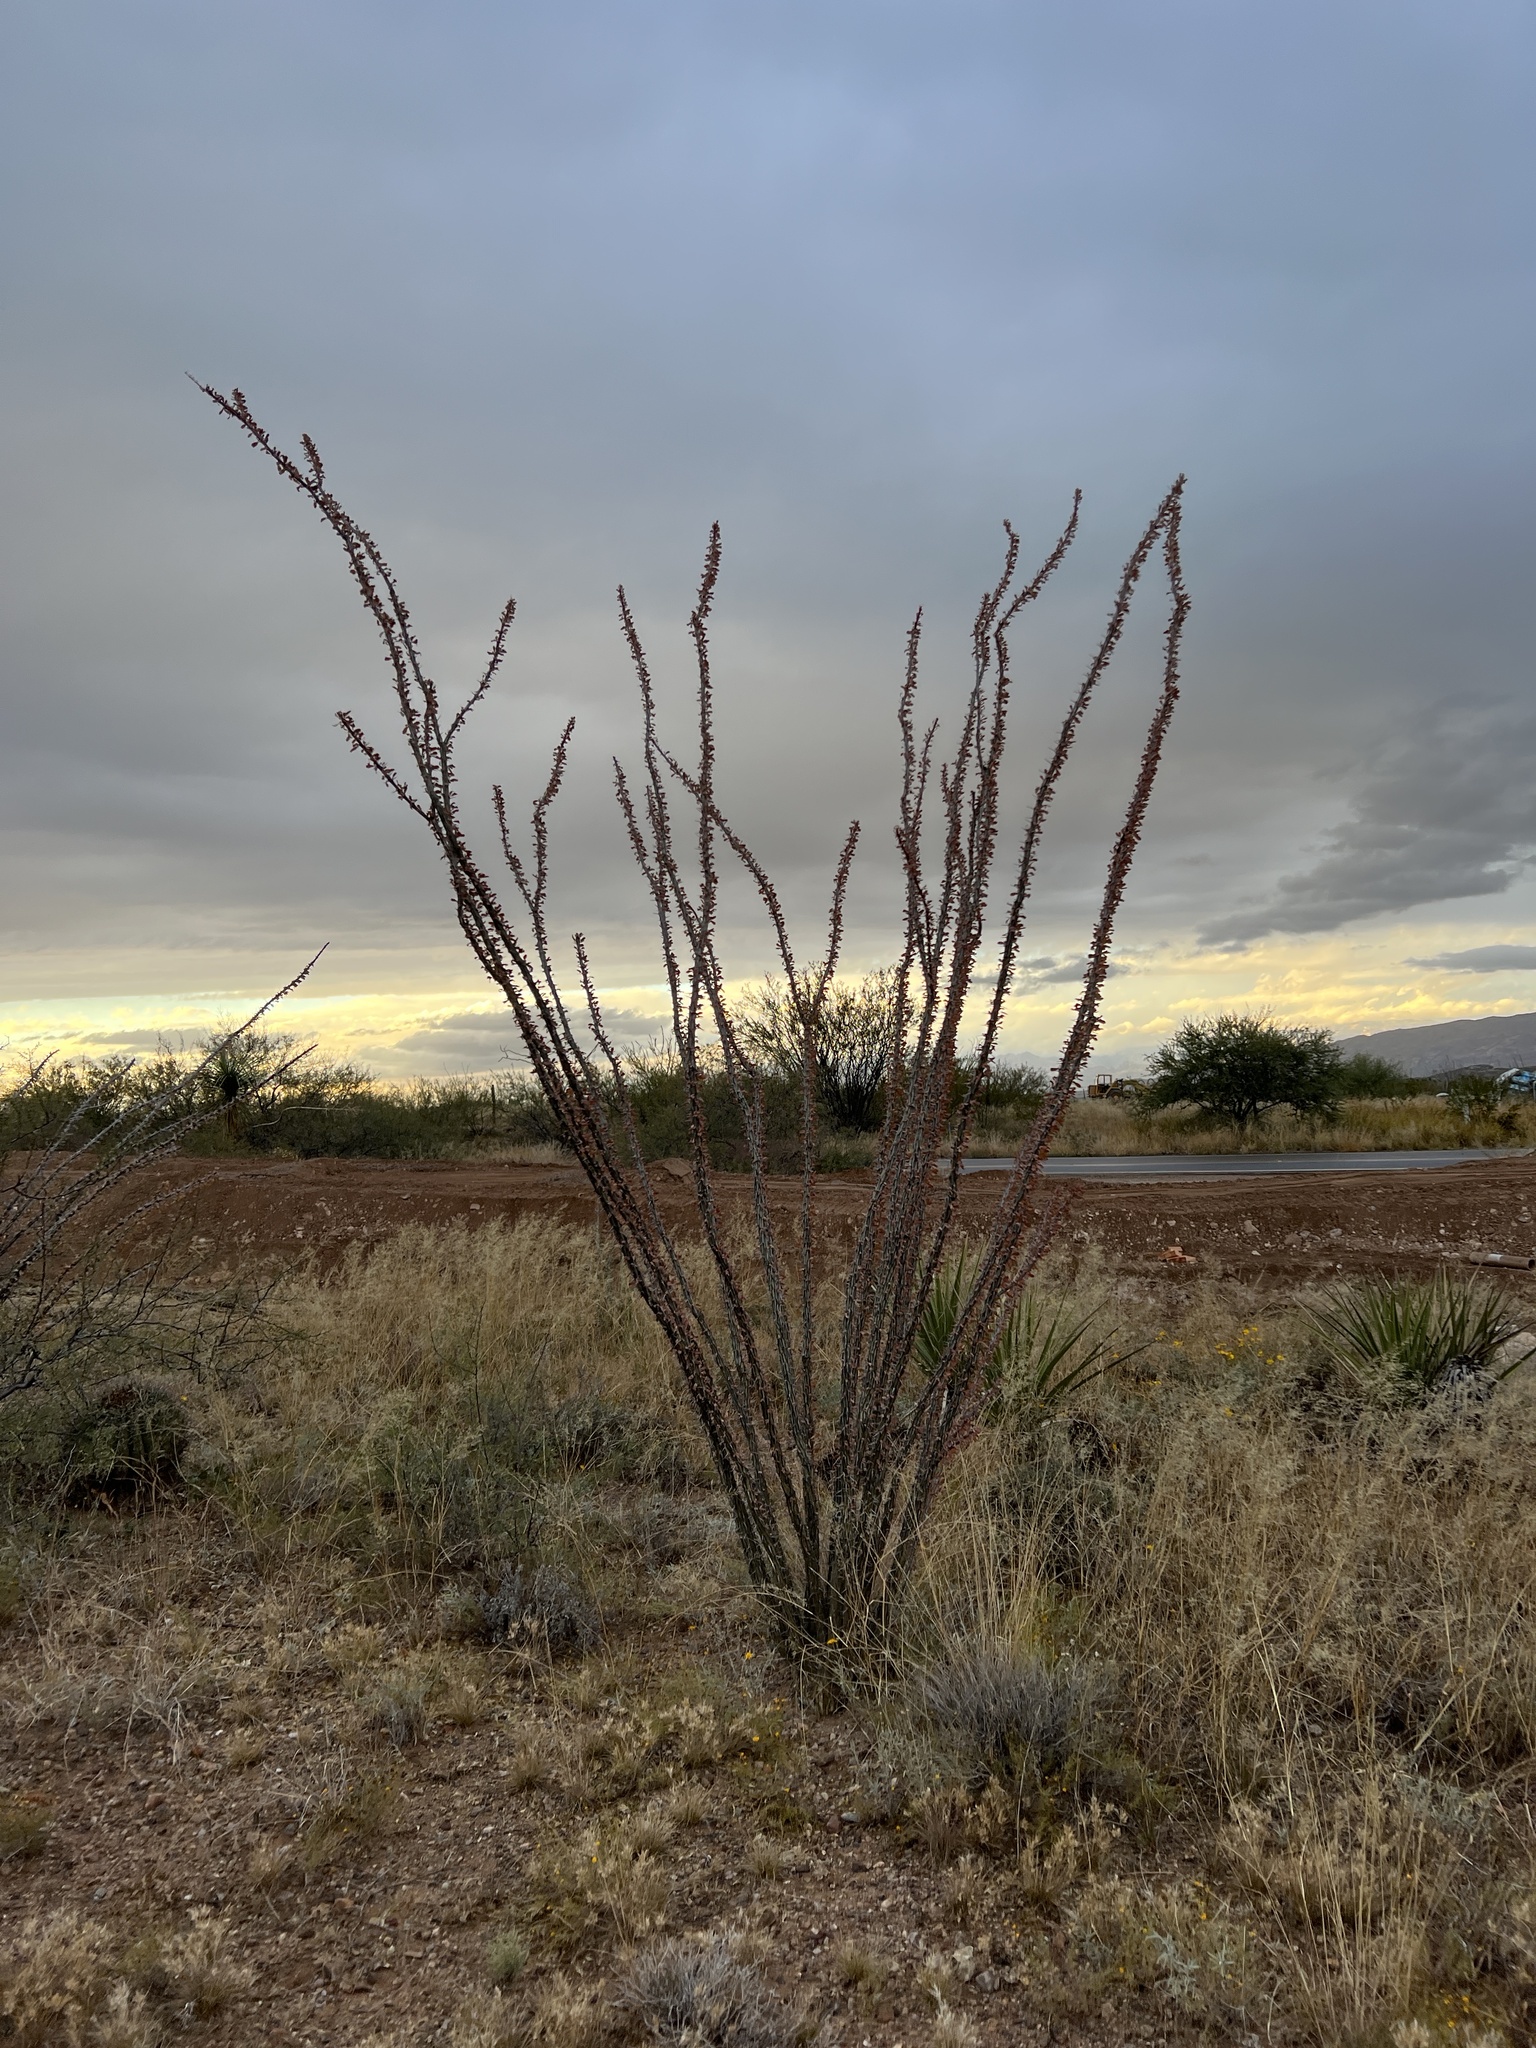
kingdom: Plantae
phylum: Tracheophyta
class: Magnoliopsida
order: Ericales
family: Fouquieriaceae
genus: Fouquieria
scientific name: Fouquieria splendens
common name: Vine-cactus
